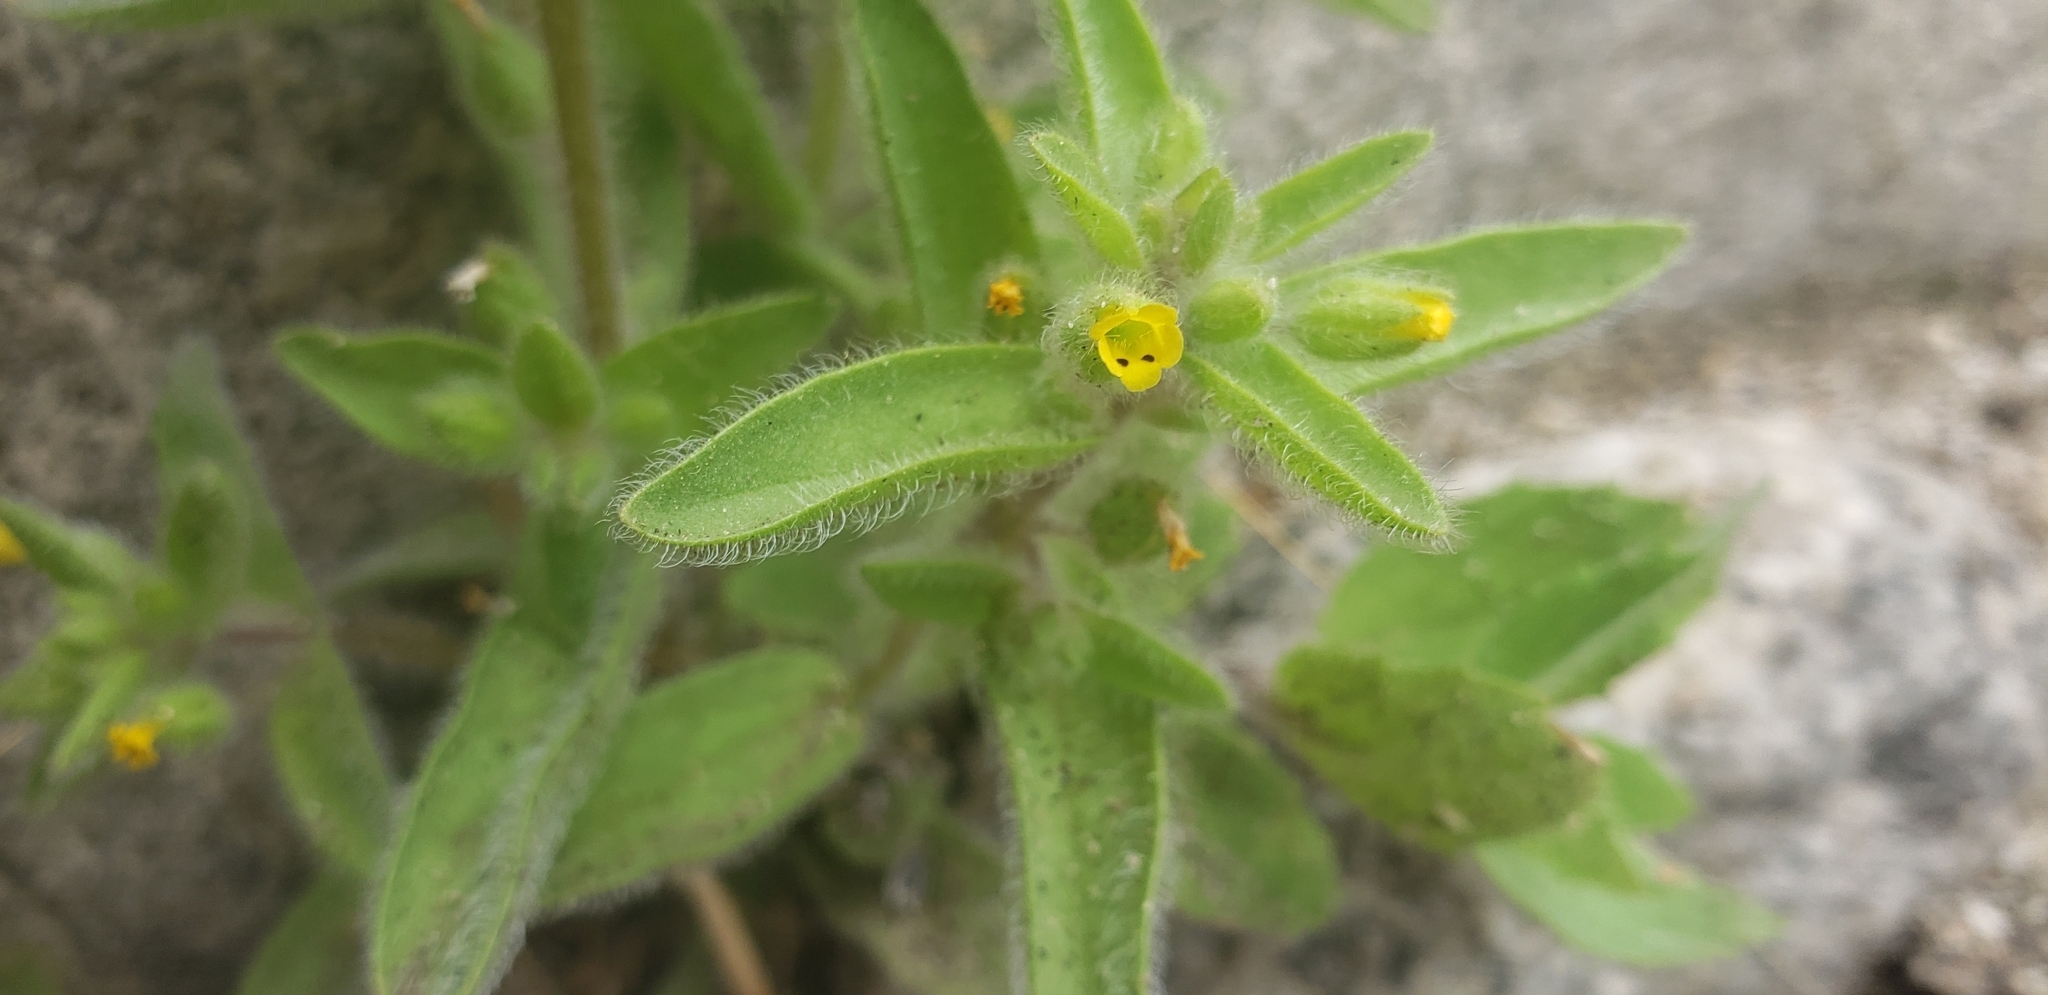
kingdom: Plantae
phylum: Tracheophyta
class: Magnoliopsida
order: Lamiales
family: Phrymaceae
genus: Mimetanthe
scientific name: Mimetanthe pilosa
